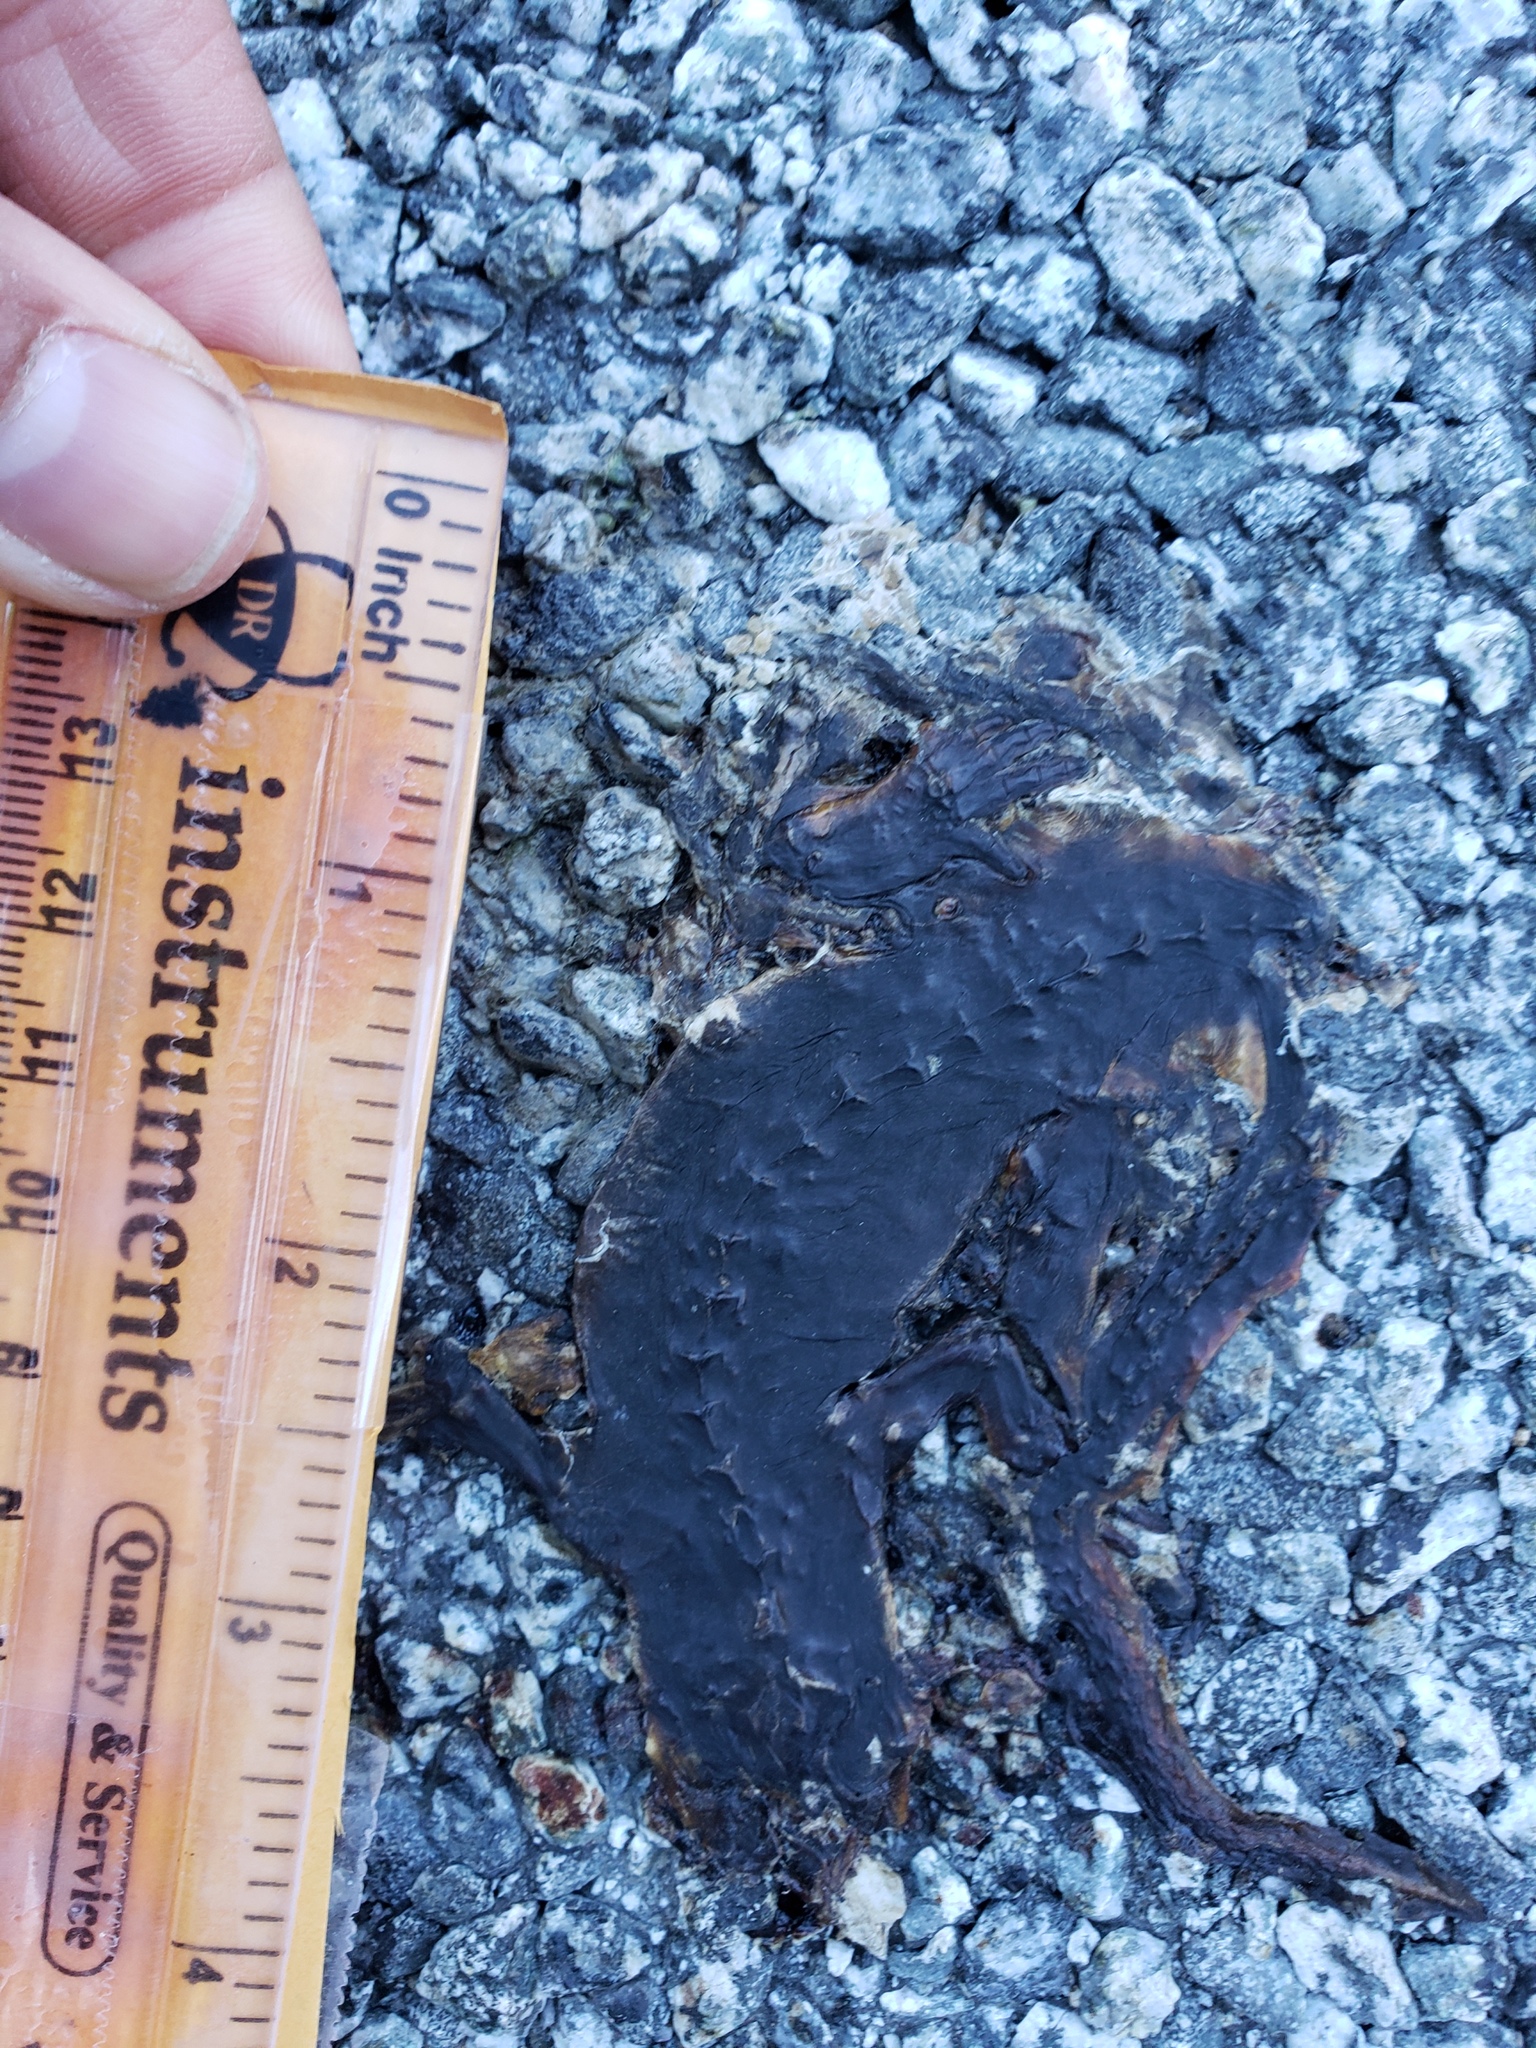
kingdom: Animalia
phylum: Chordata
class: Amphibia
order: Caudata
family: Salamandridae
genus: Taricha
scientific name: Taricha
